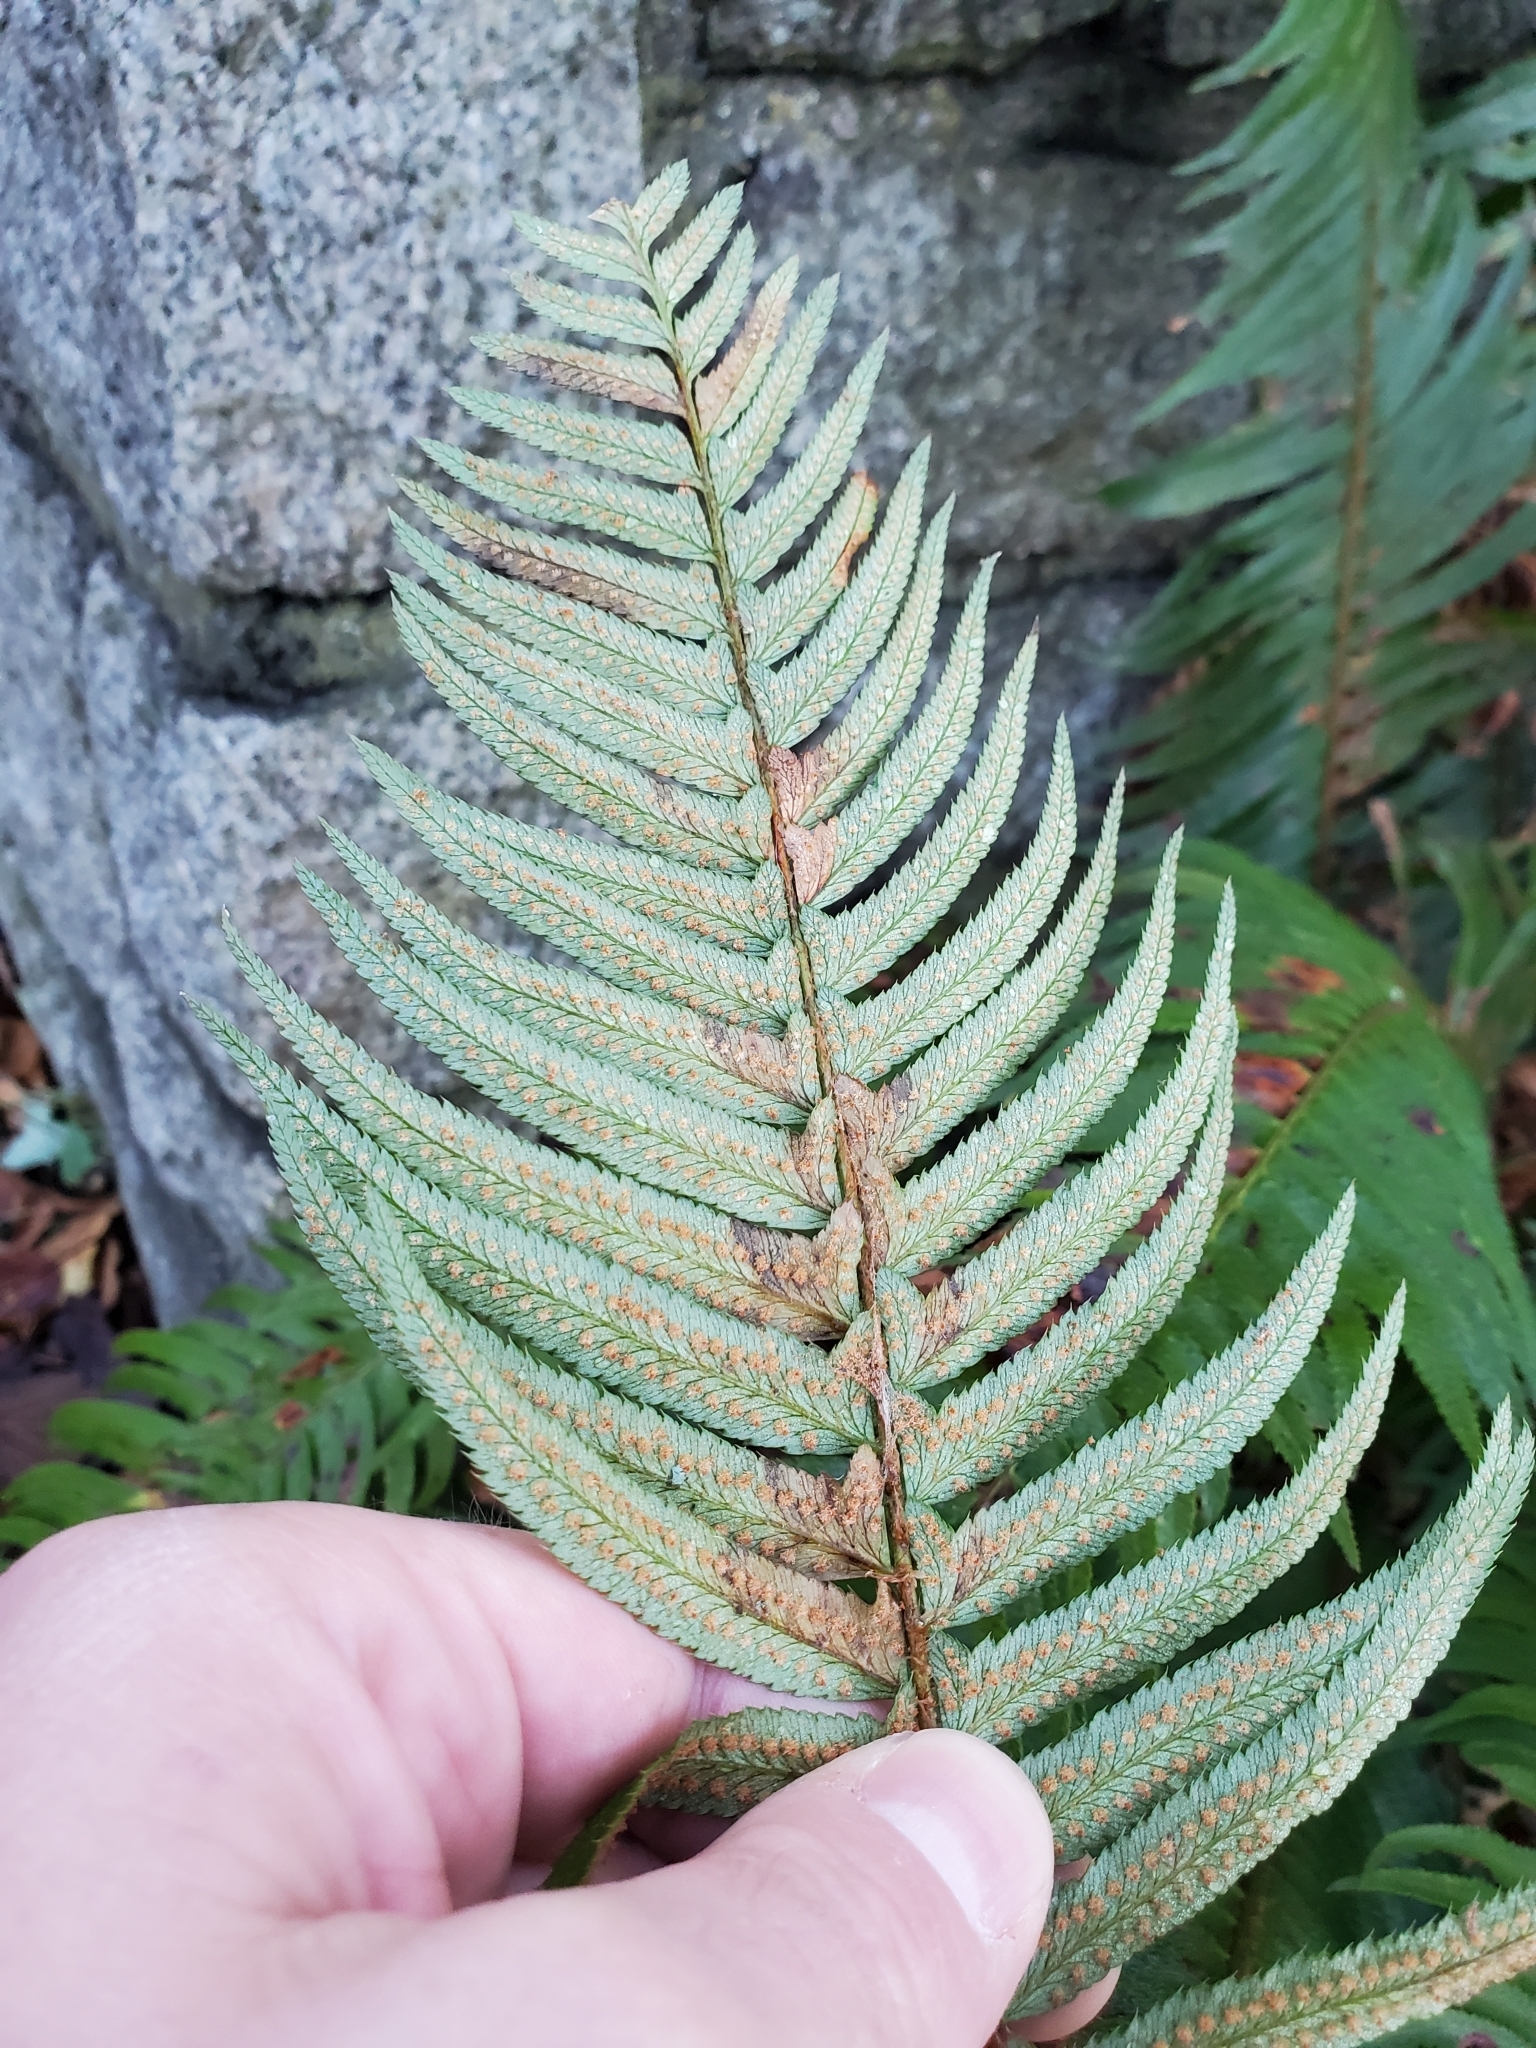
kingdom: Plantae
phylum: Tracheophyta
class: Polypodiopsida
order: Polypodiales
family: Dryopteridaceae
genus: Polystichum
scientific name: Polystichum munitum
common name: Western sword-fern
